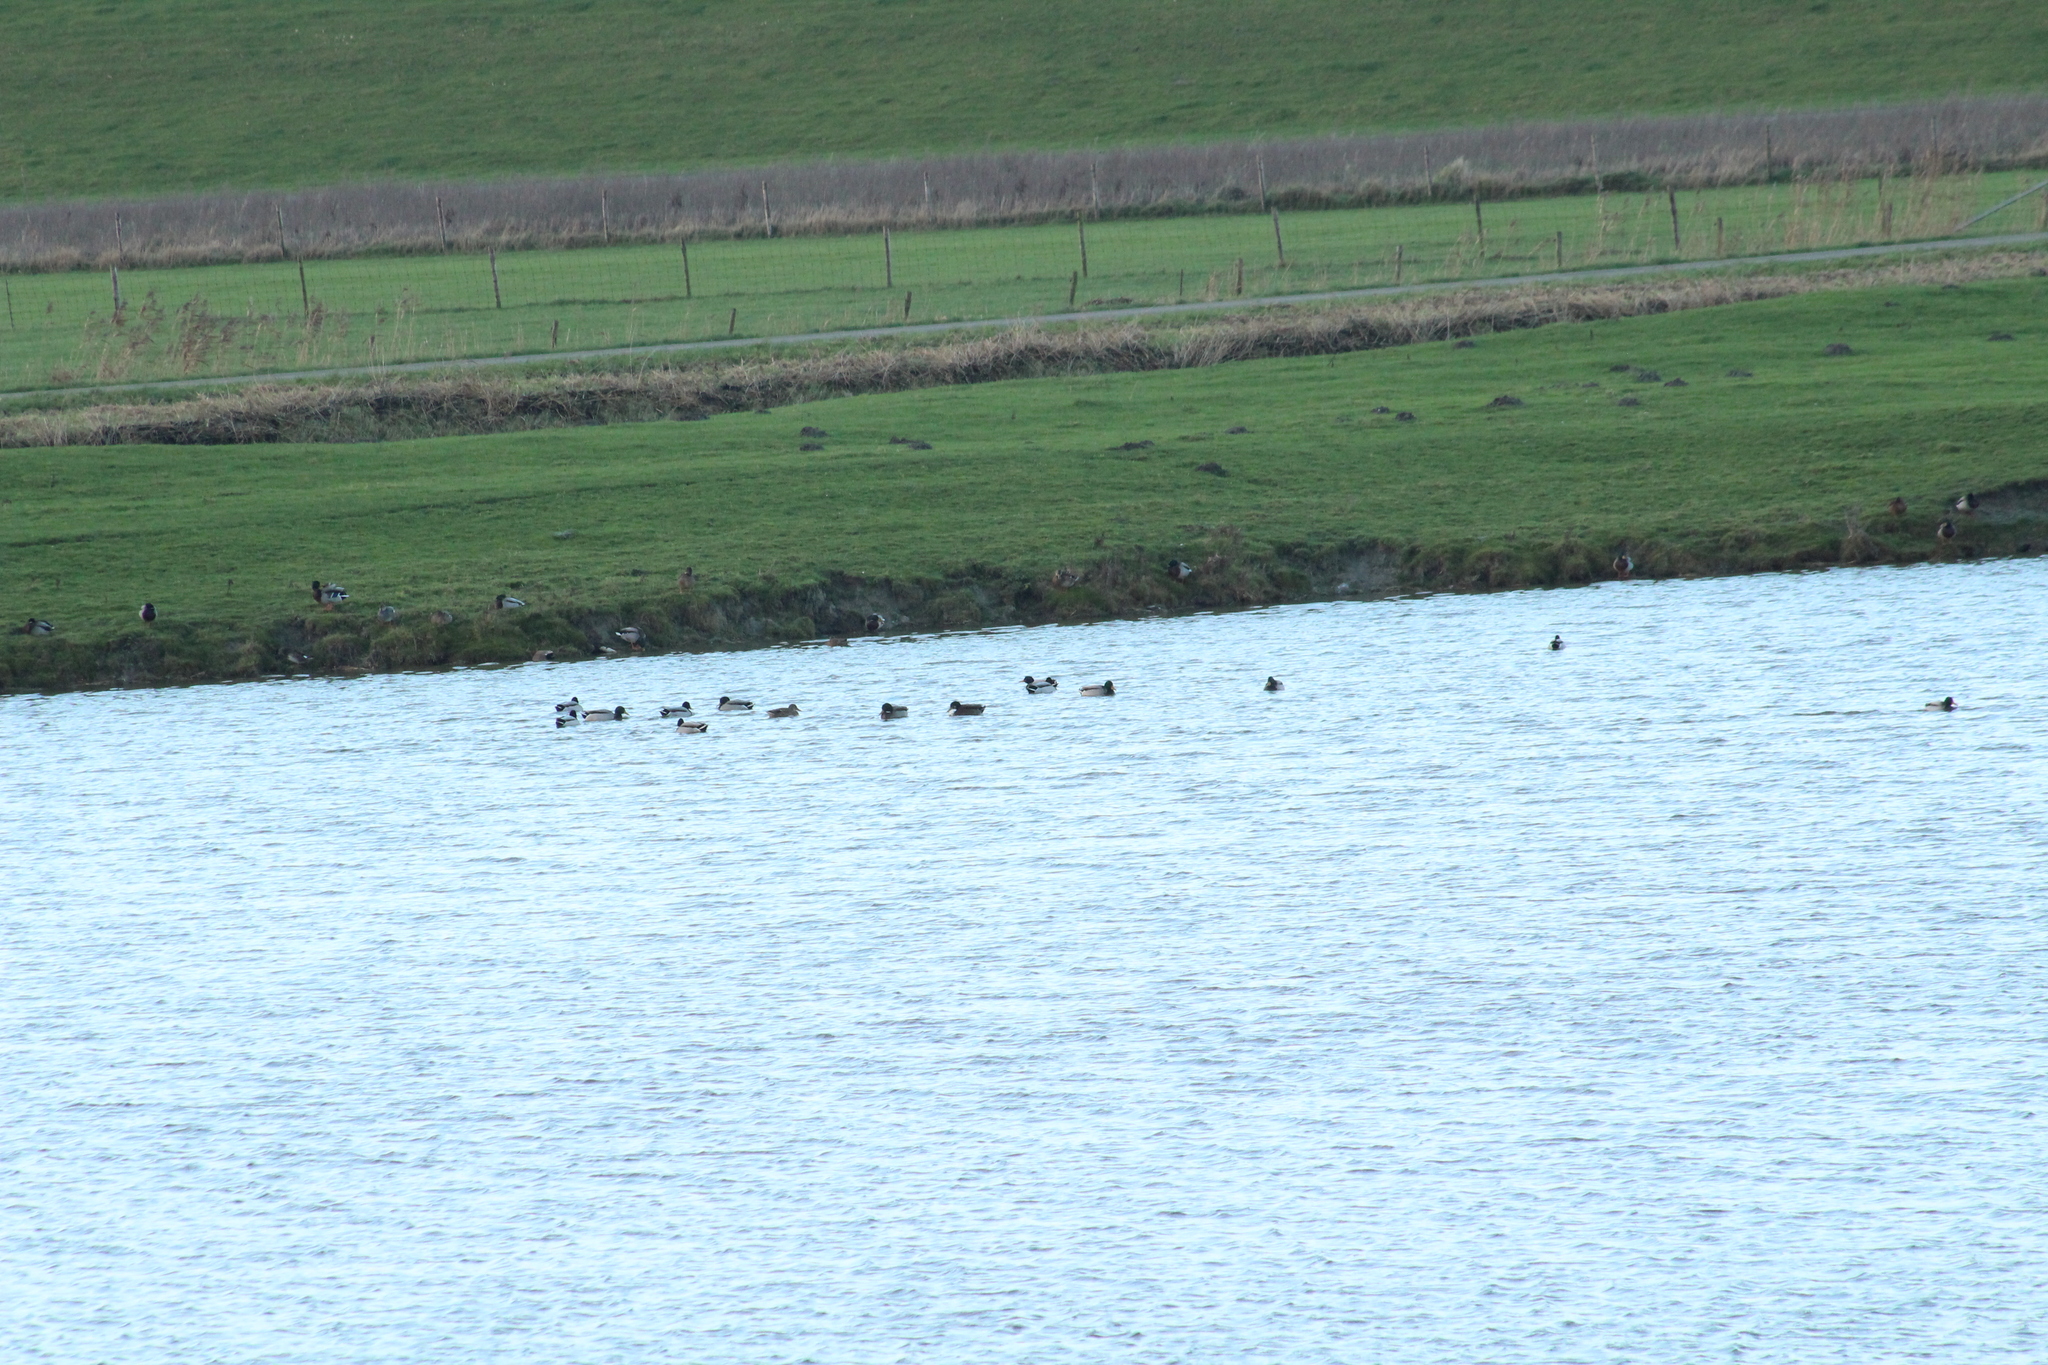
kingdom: Animalia
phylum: Chordata
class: Aves
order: Anseriformes
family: Anatidae
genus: Anas
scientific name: Anas platyrhynchos
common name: Mallard
